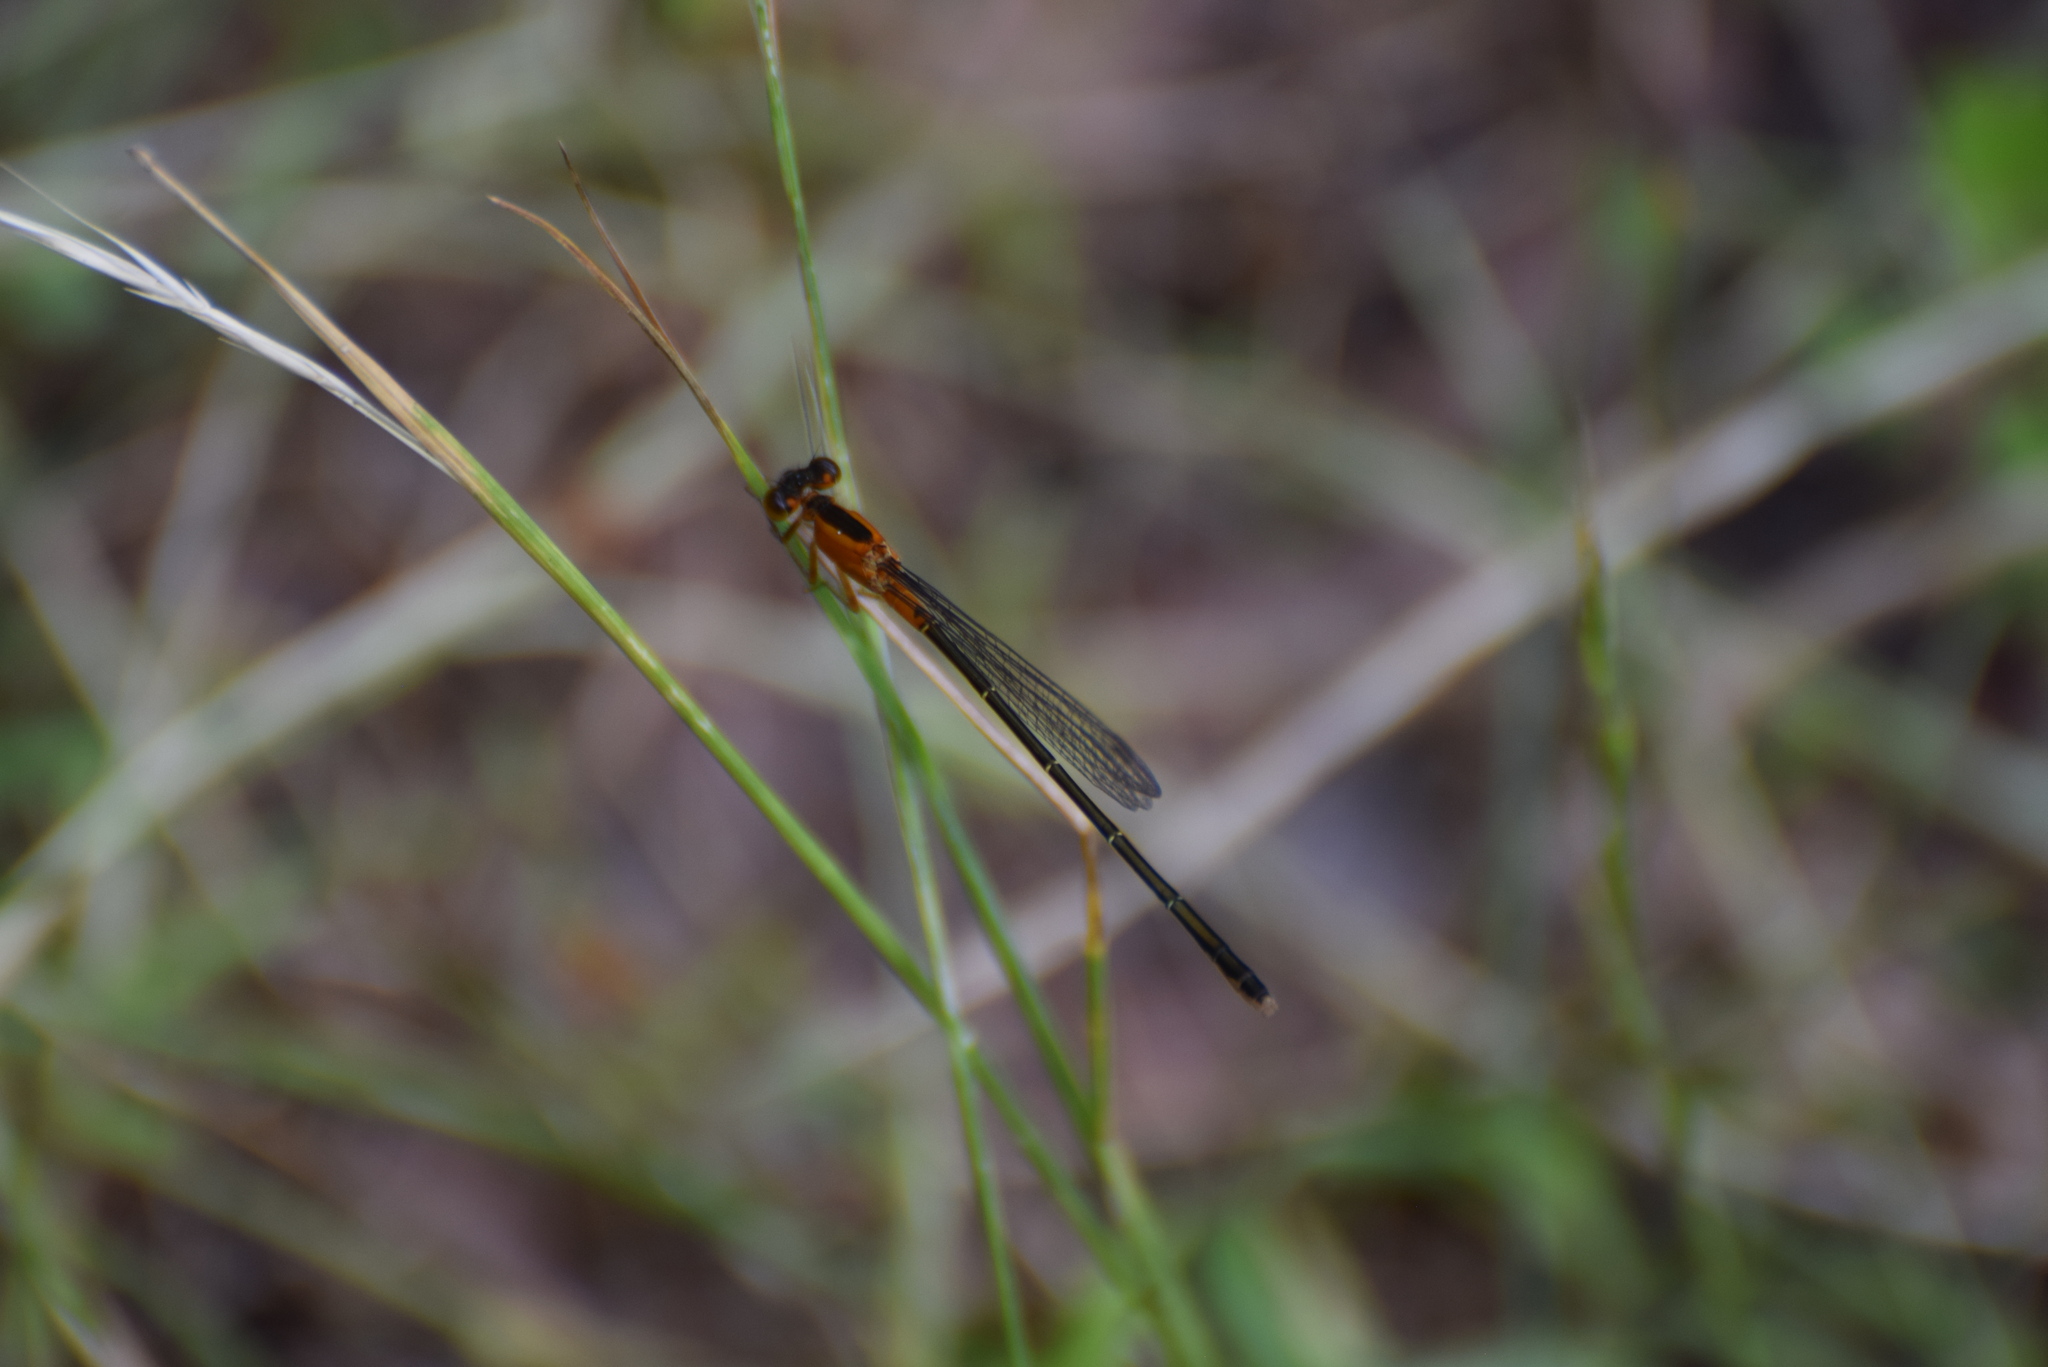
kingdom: Animalia
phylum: Arthropoda
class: Insecta
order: Odonata
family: Coenagrionidae
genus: Ischnura
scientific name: Ischnura ramburii
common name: Rambur's forktail
